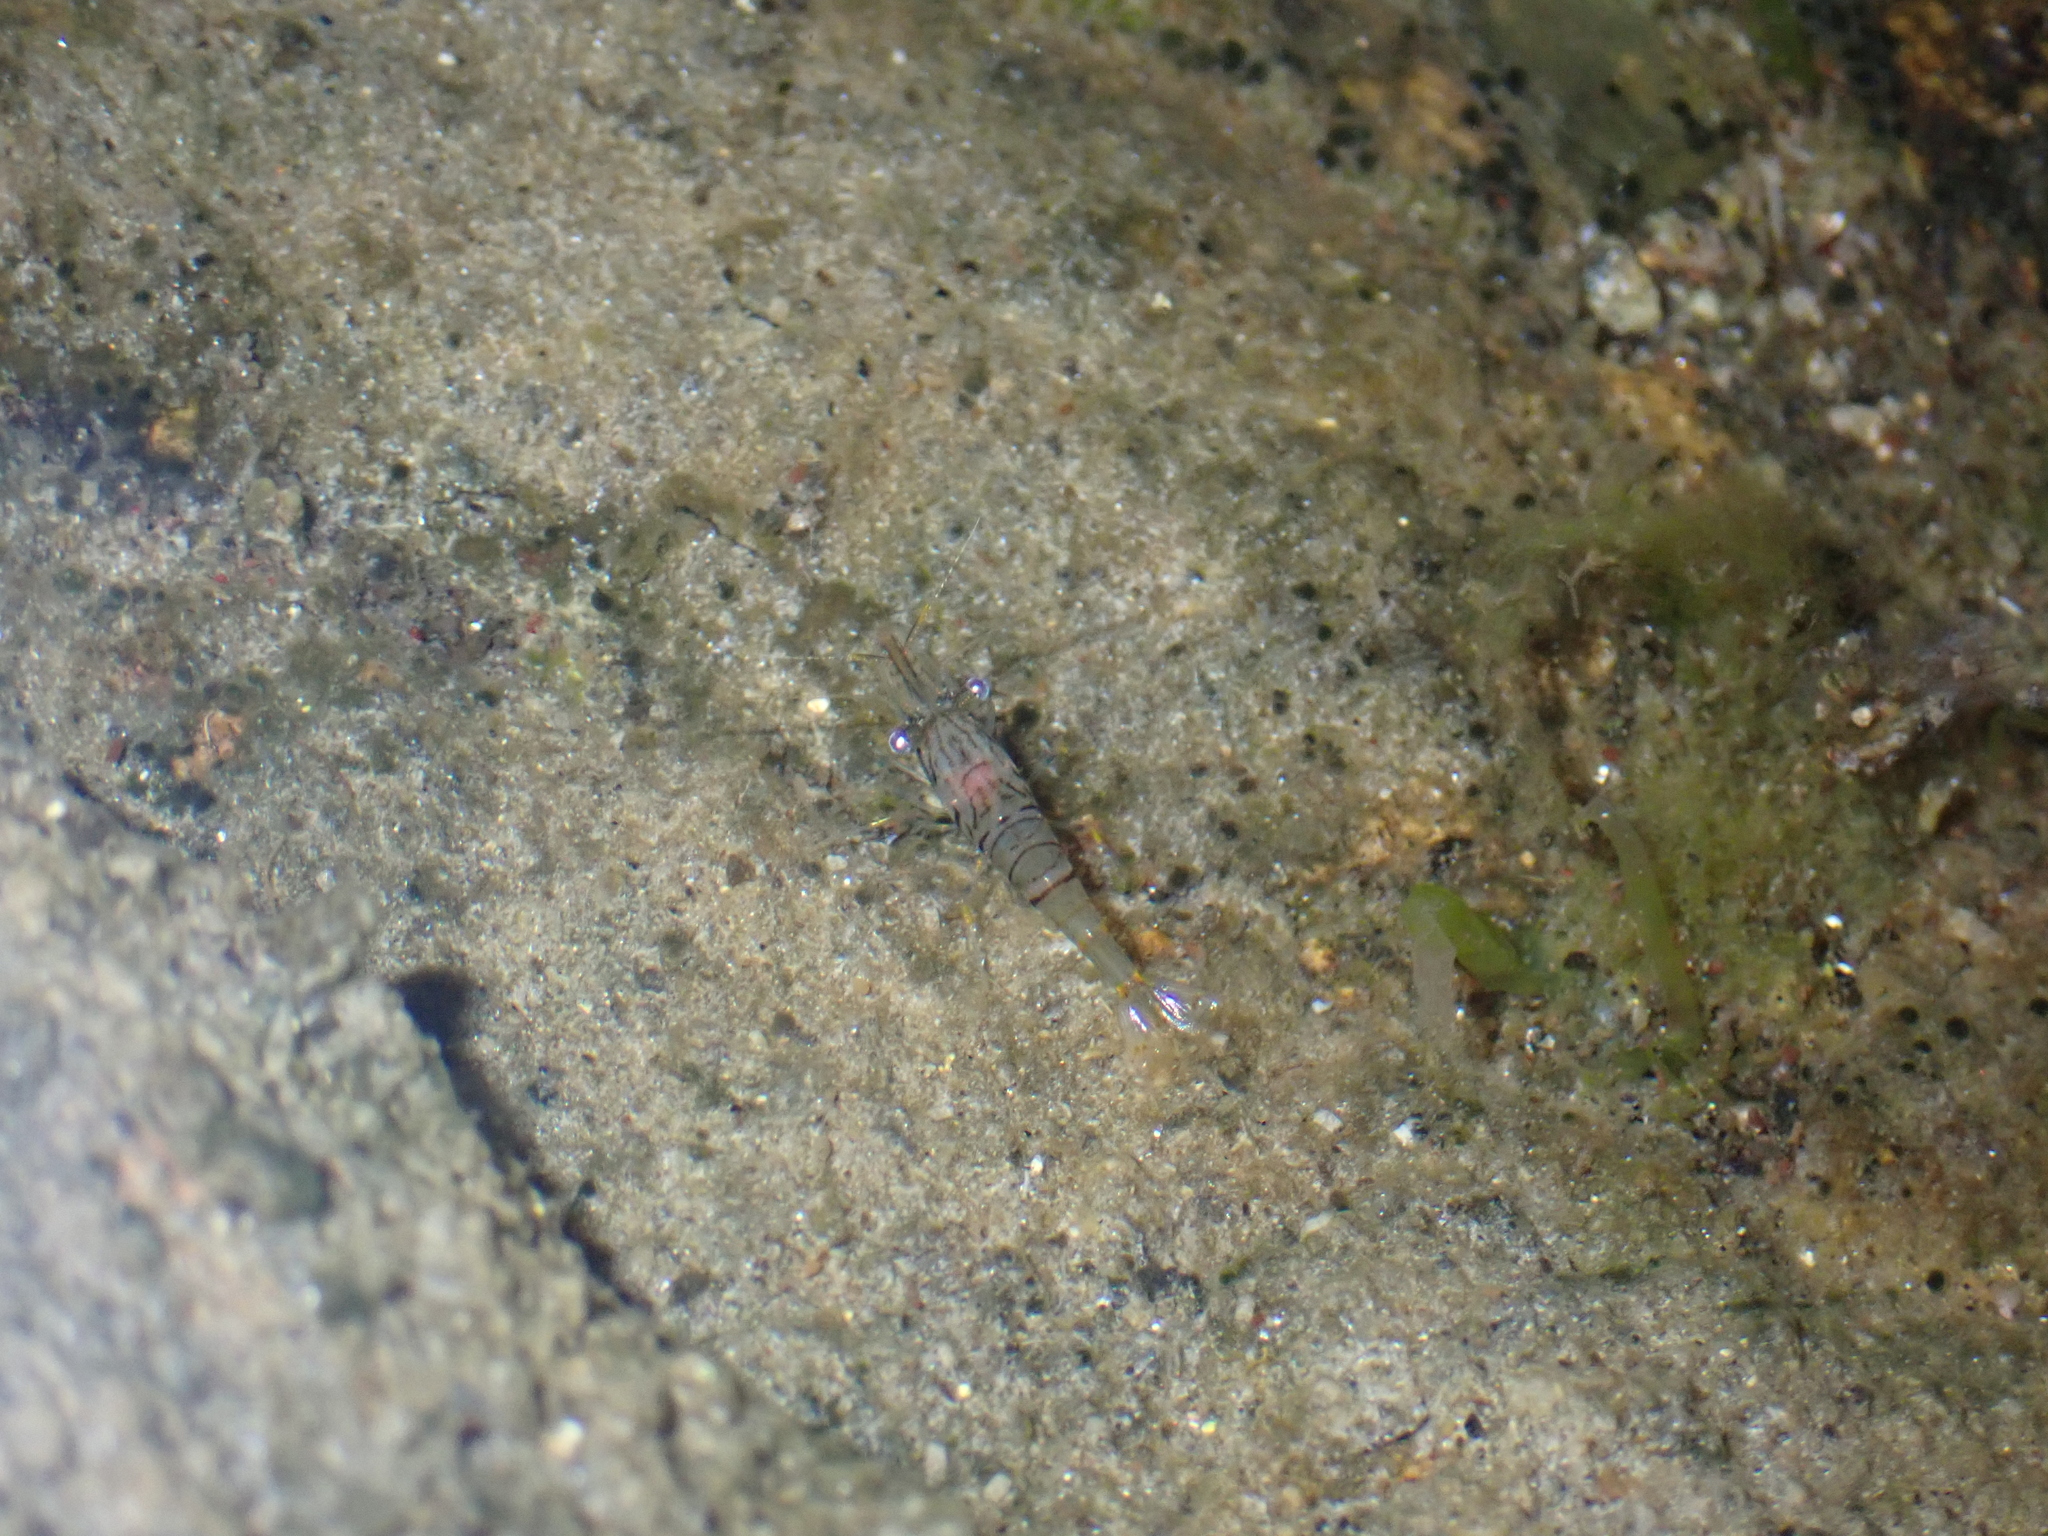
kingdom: Animalia
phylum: Arthropoda
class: Malacostraca
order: Decapoda
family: Palaemonidae
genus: Palaemon
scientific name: Palaemon elegans
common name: Grass prawm
